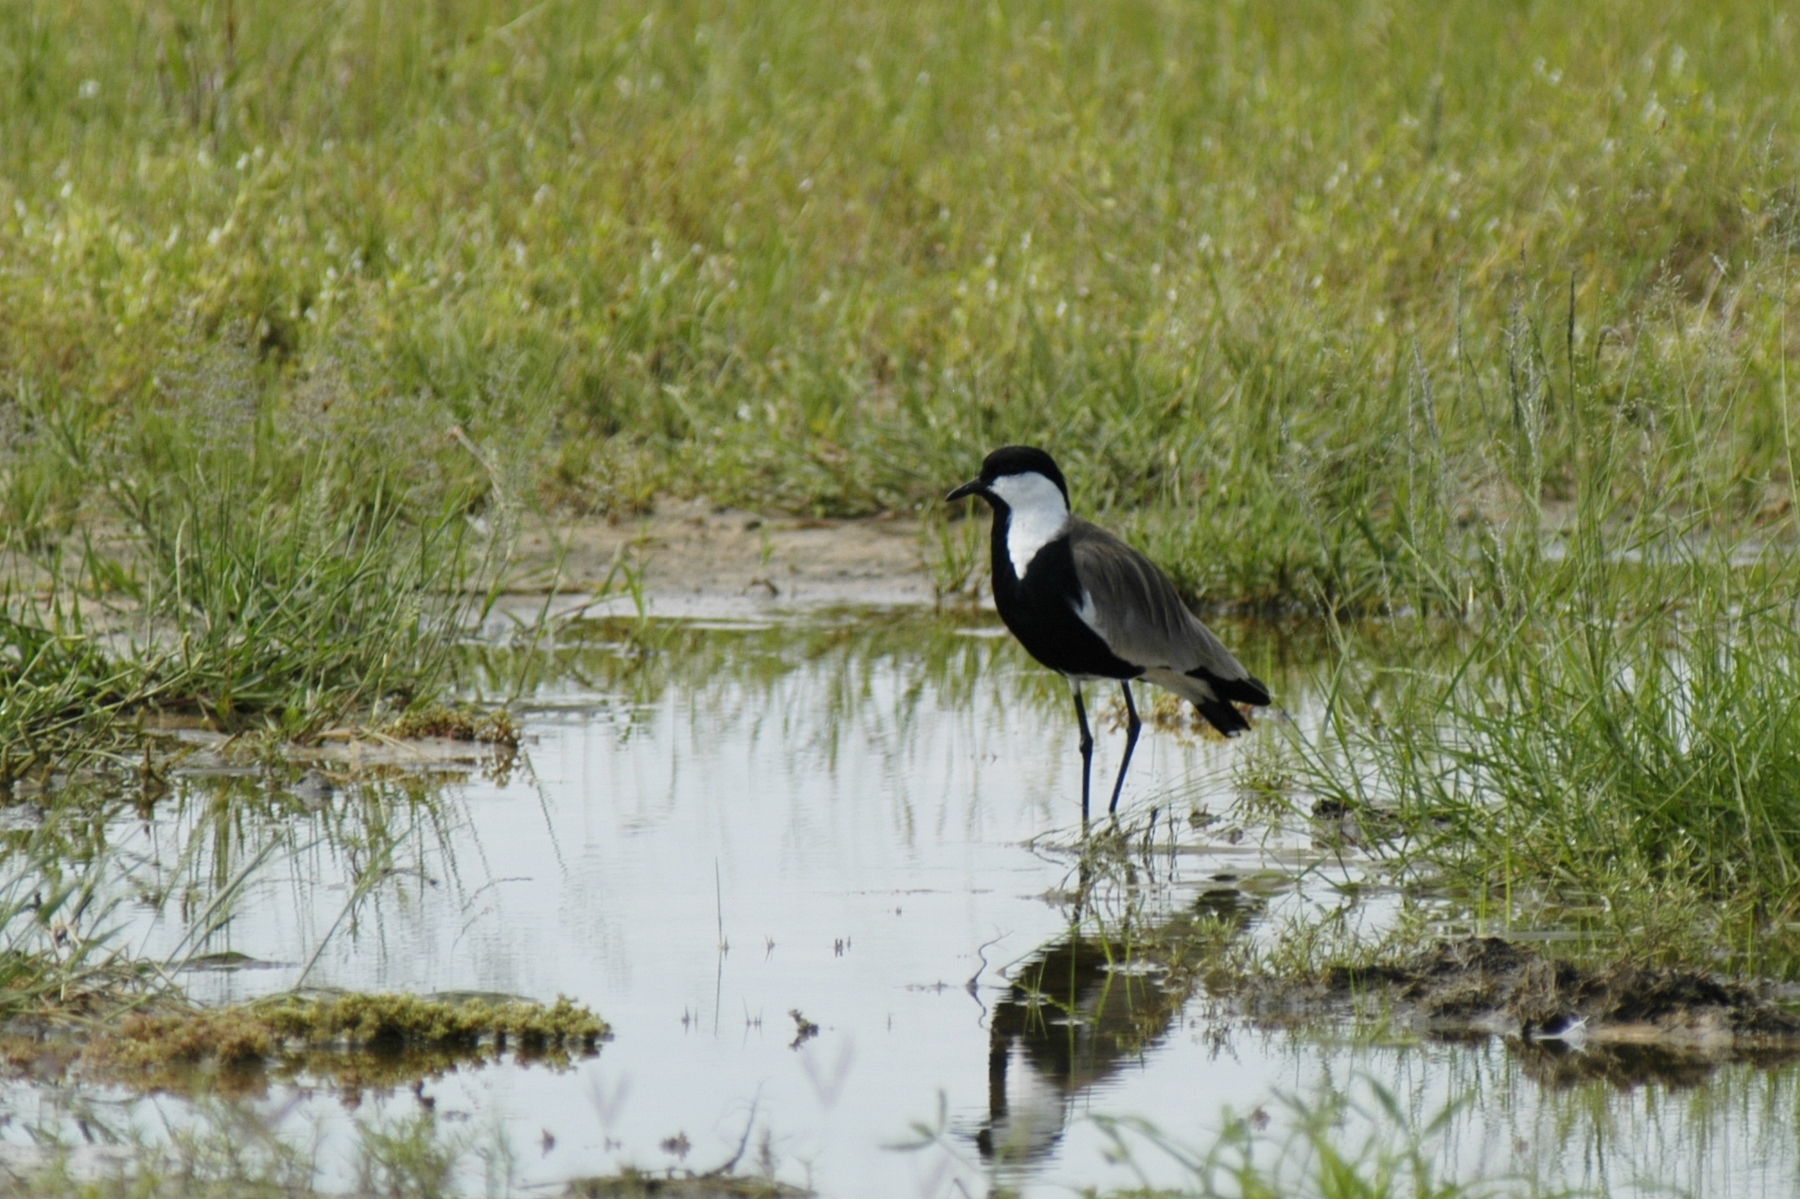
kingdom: Animalia
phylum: Chordata
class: Aves
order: Charadriiformes
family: Charadriidae
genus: Vanellus
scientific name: Vanellus spinosus
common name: Spur-winged lapwing
